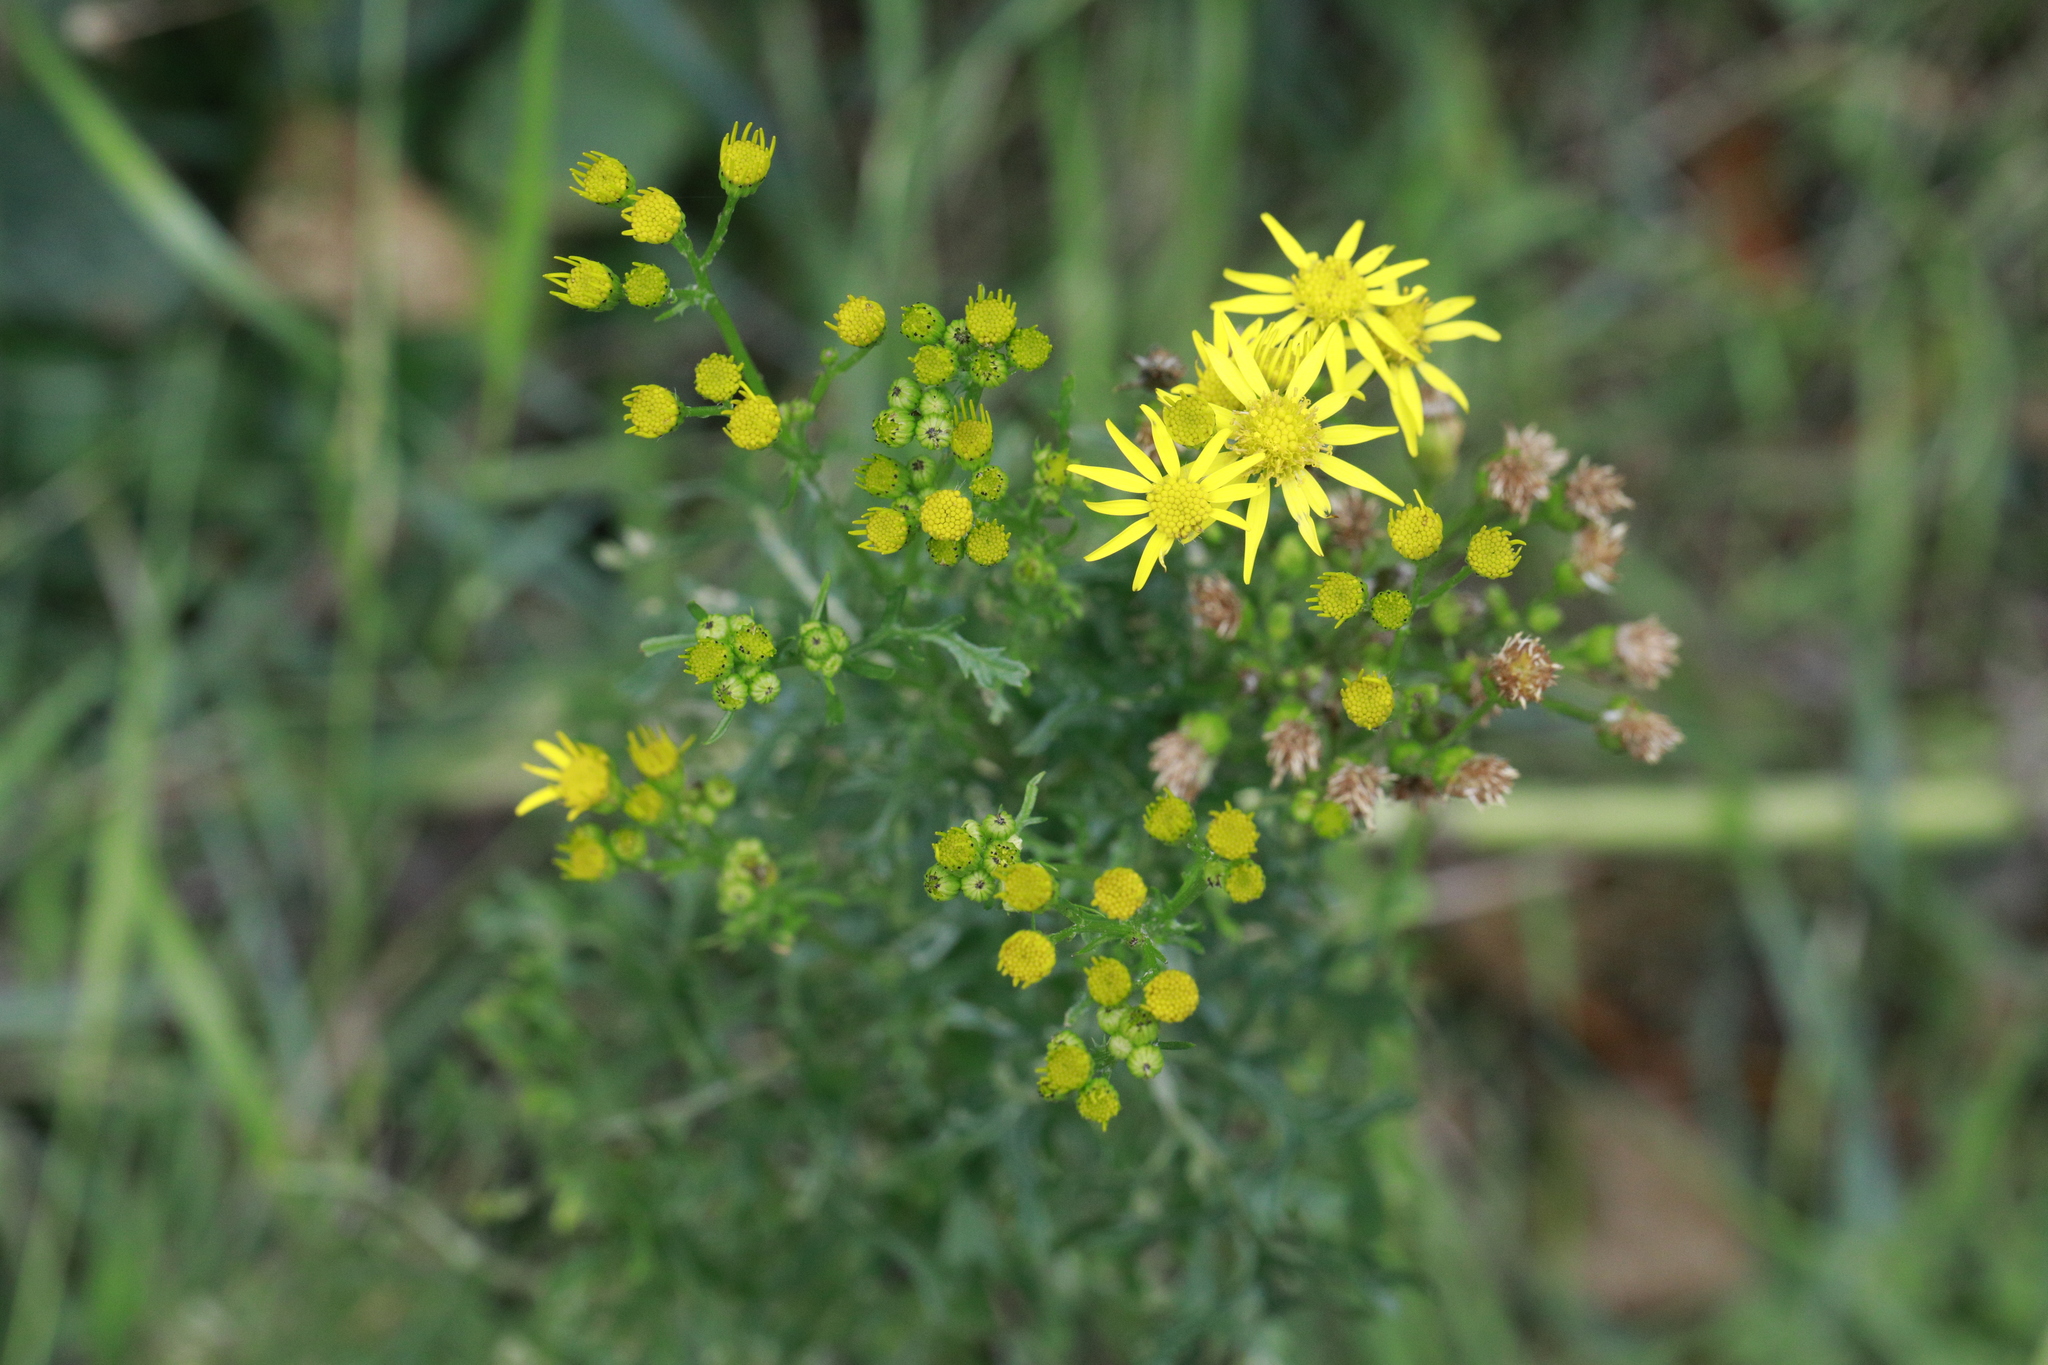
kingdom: Plantae
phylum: Tracheophyta
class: Magnoliopsida
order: Asterales
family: Asteraceae
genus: Jacobaea
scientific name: Jacobaea vulgaris
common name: Stinking willie
